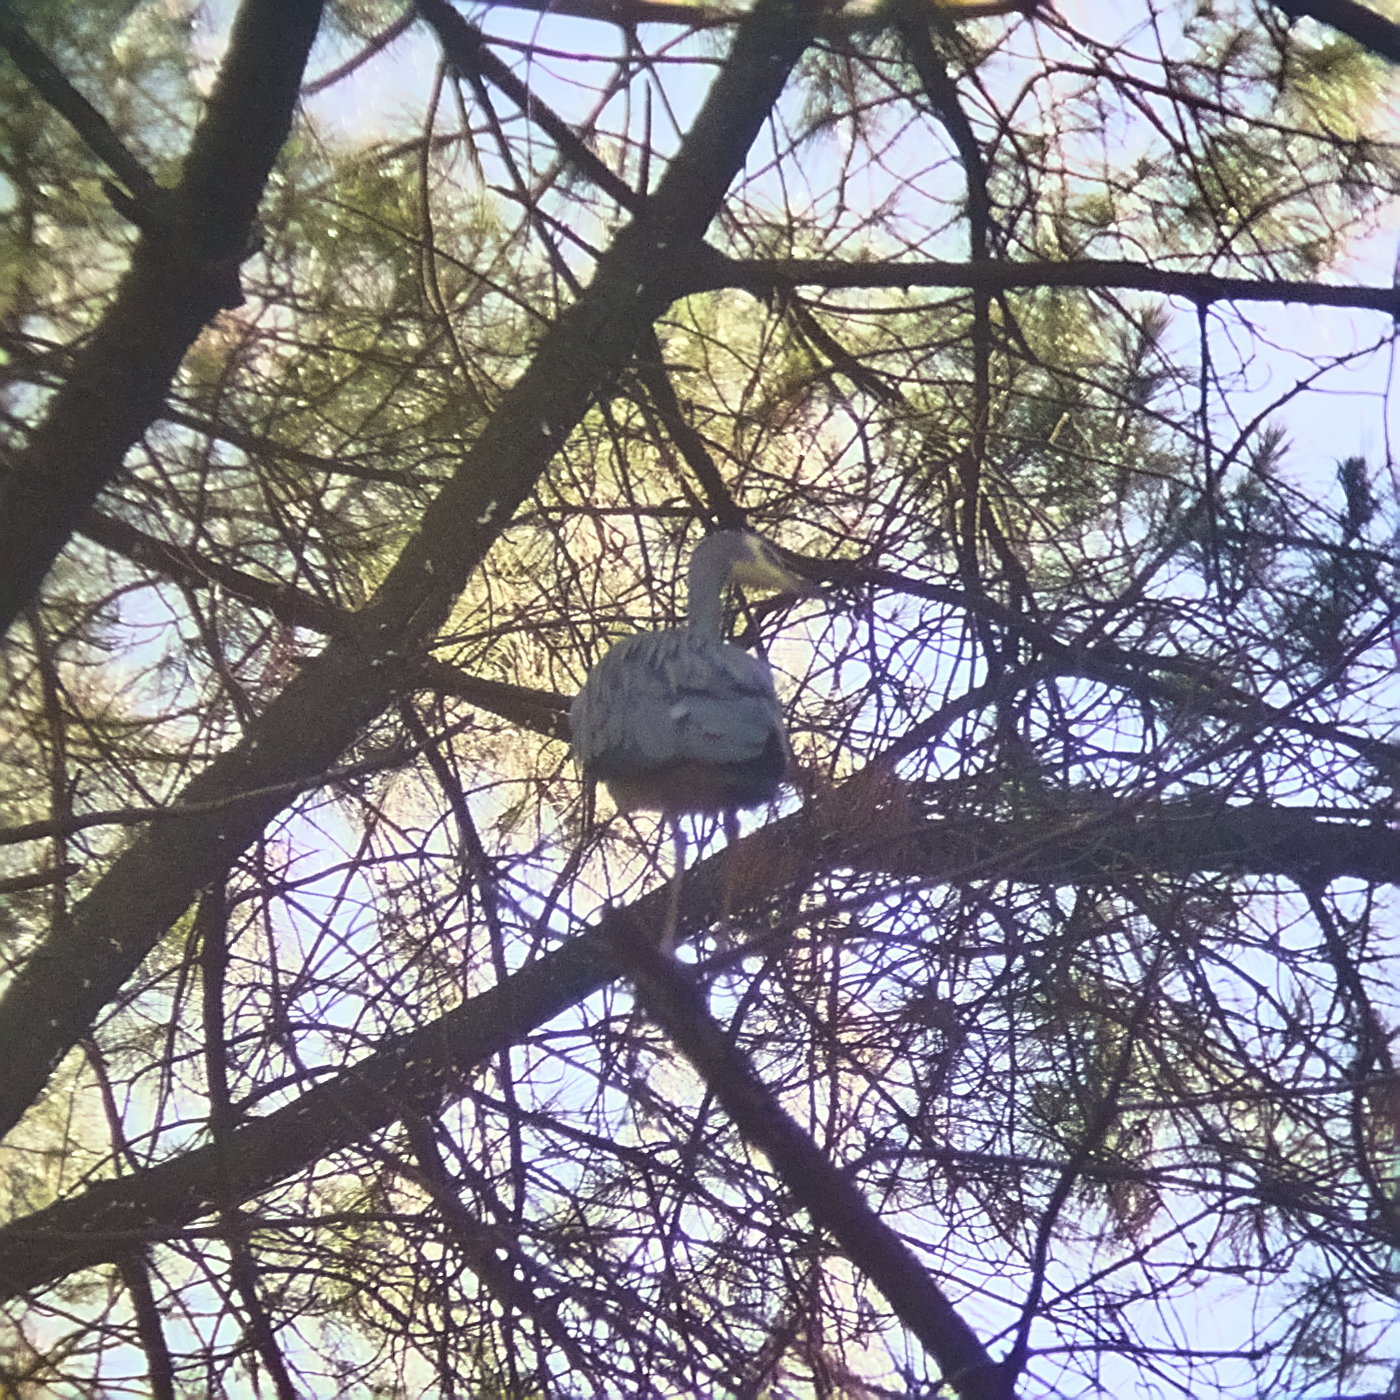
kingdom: Animalia
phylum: Chordata
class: Aves
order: Pelecaniformes
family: Ardeidae
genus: Egretta
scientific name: Egretta novaehollandiae
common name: White-faced heron
